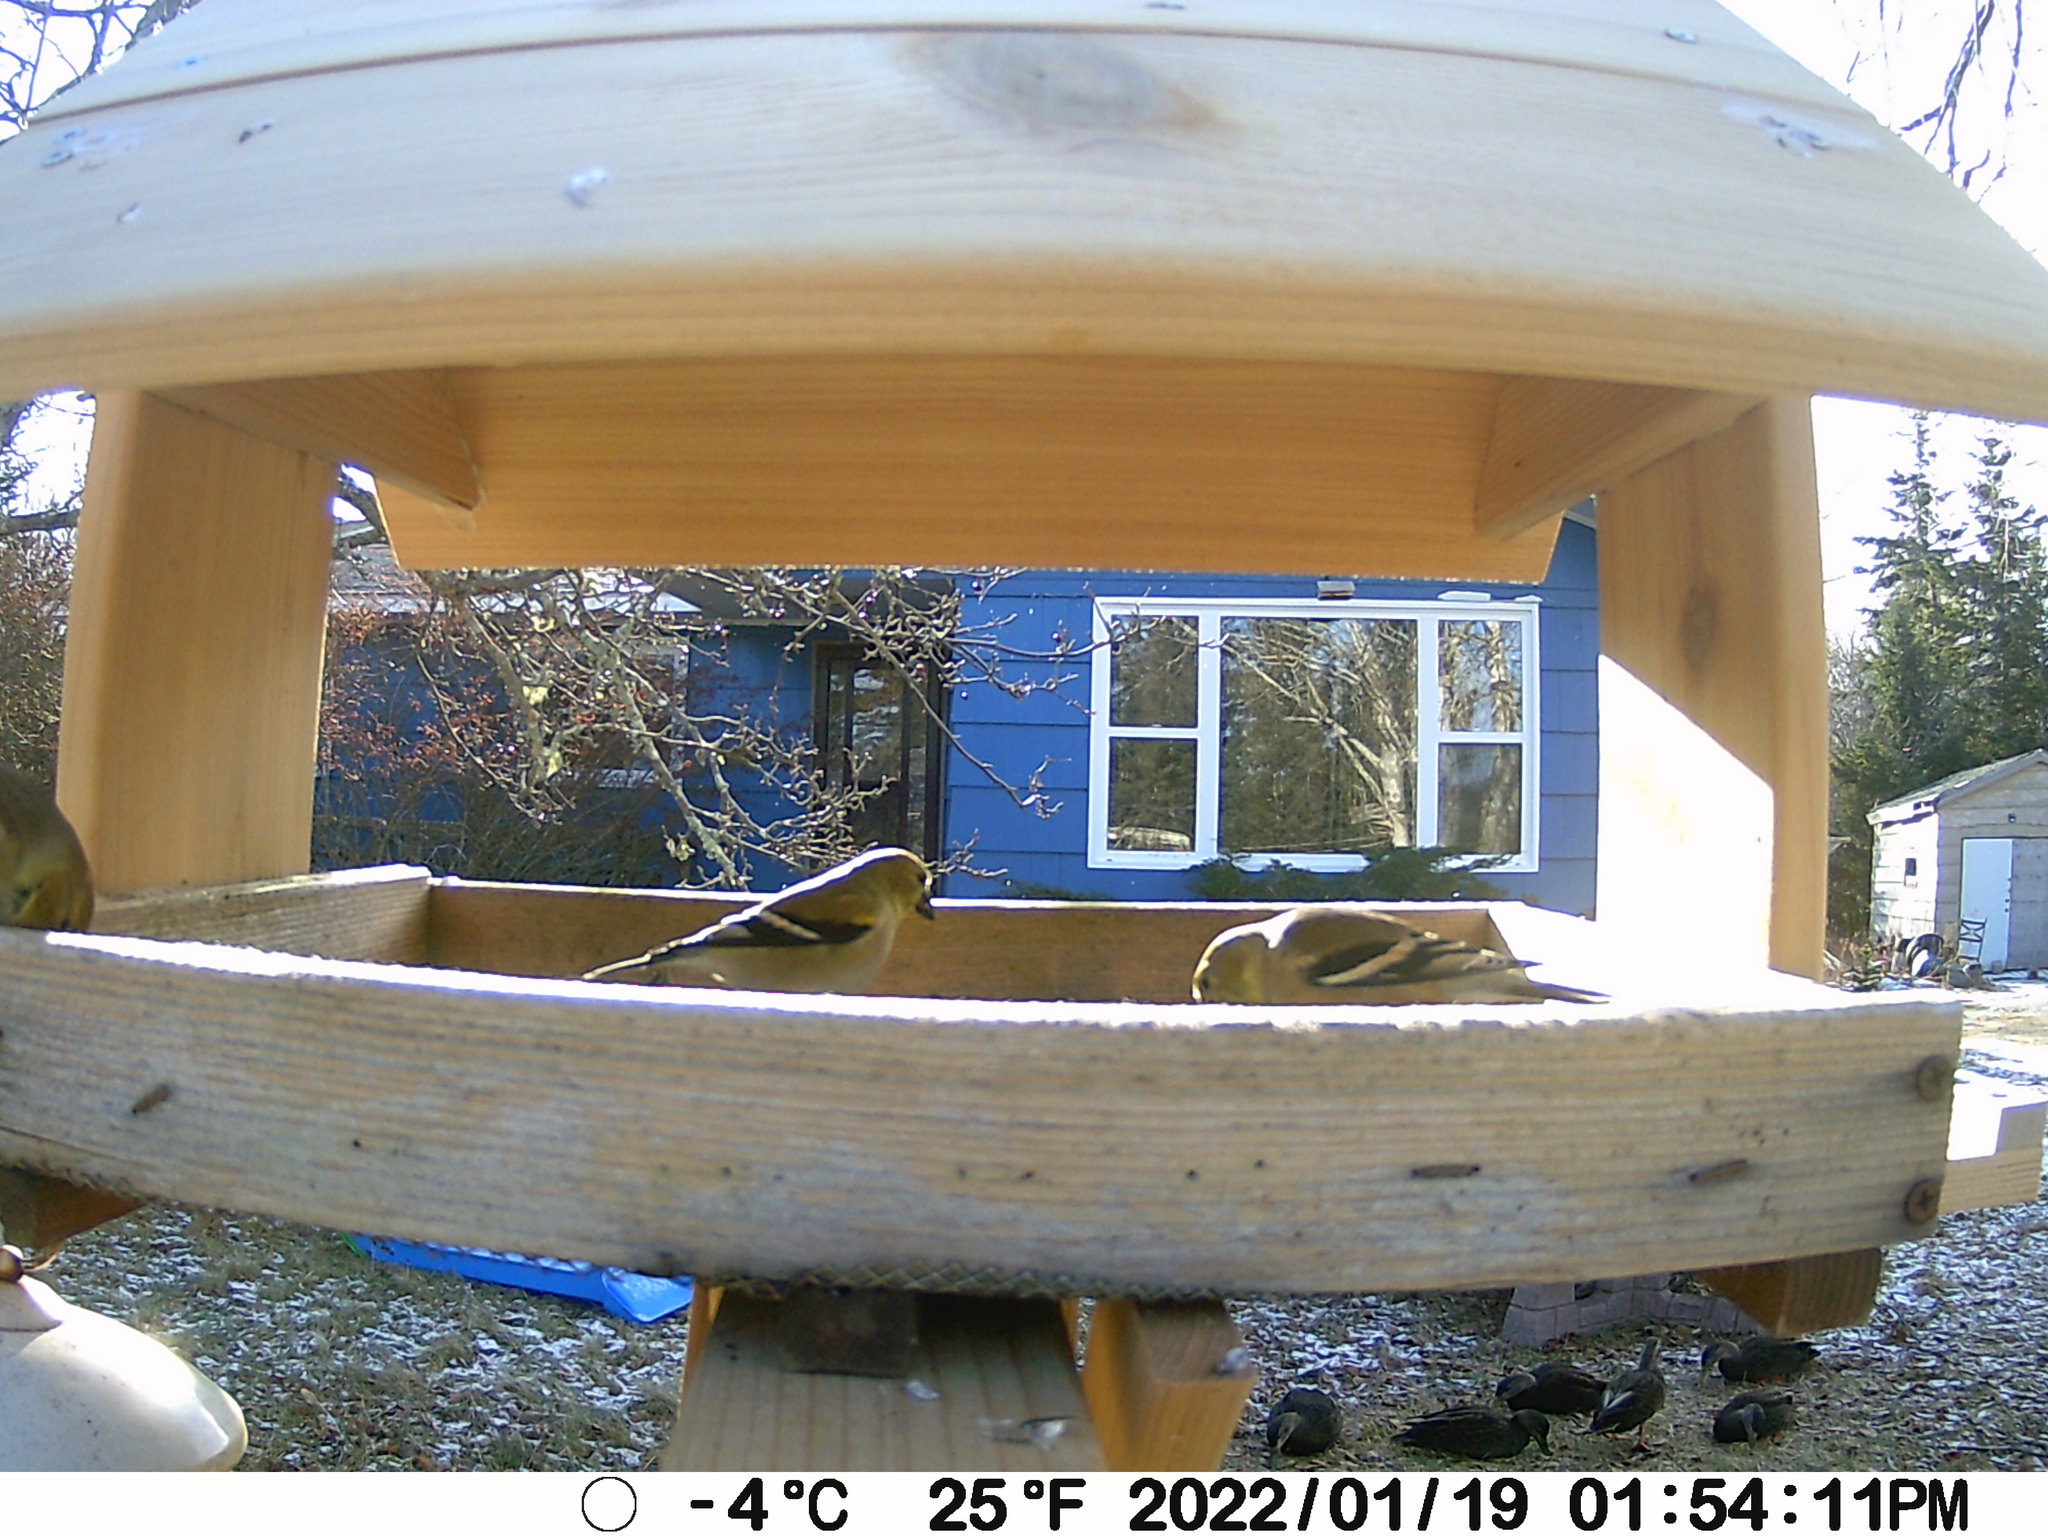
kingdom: Animalia
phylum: Chordata
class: Aves
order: Anseriformes
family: Anatidae
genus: Anas
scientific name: Anas rubripes
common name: American black duck
